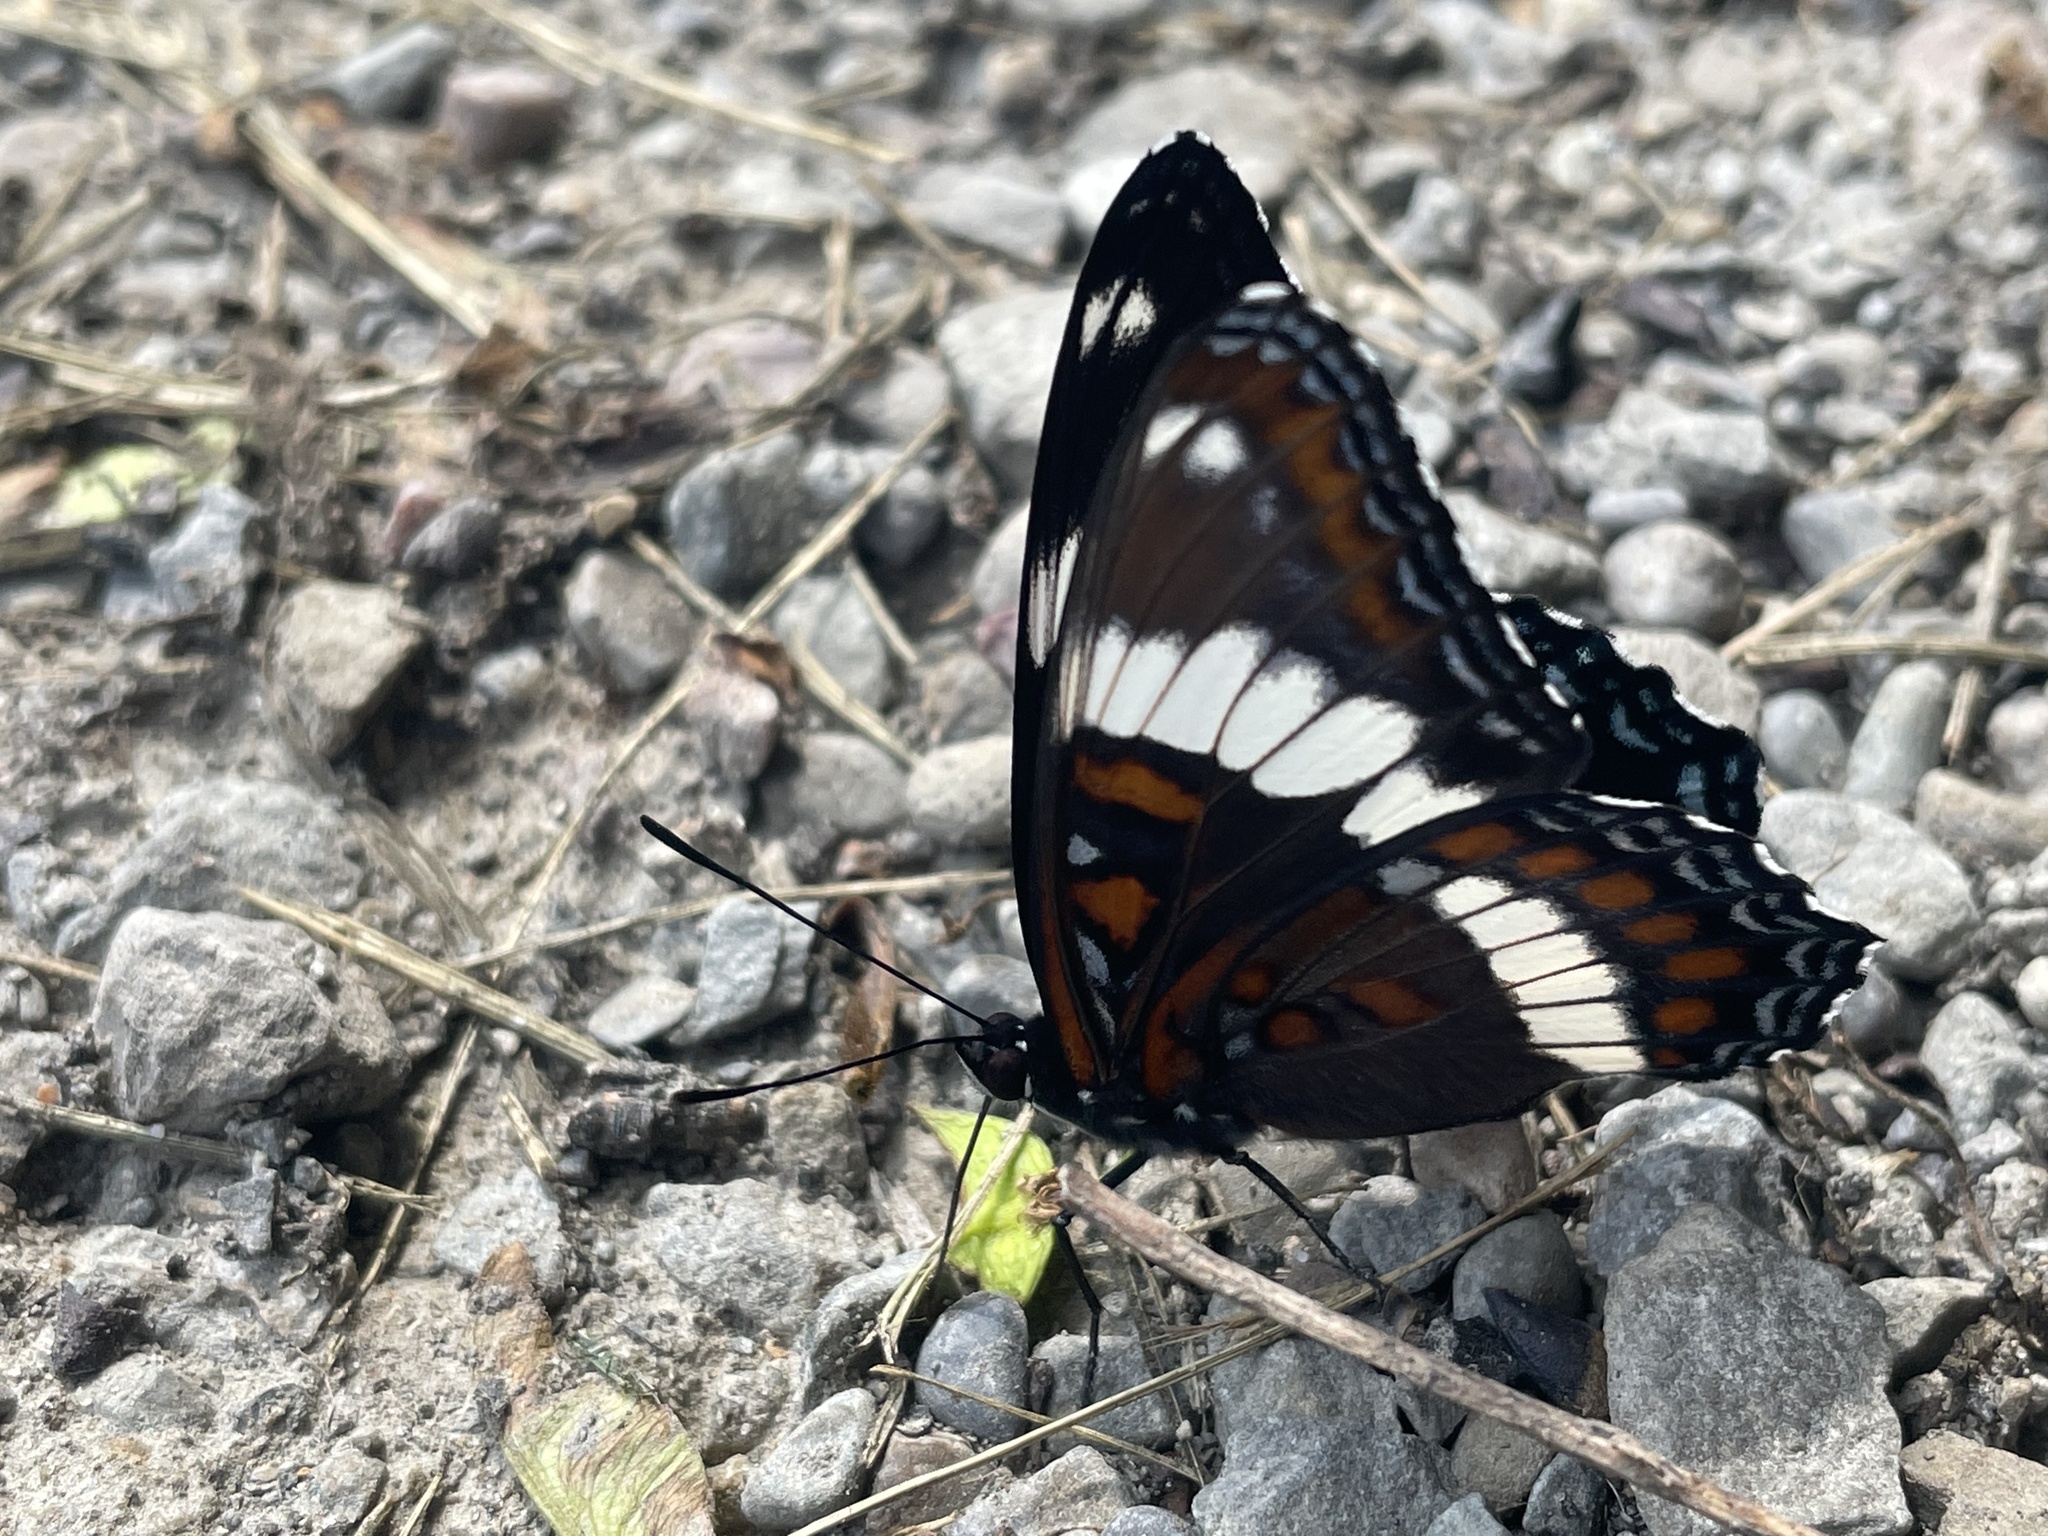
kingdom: Animalia
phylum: Arthropoda
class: Insecta
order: Lepidoptera
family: Nymphalidae
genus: Limenitis
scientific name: Limenitis arthemis
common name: Red-spotted admiral
